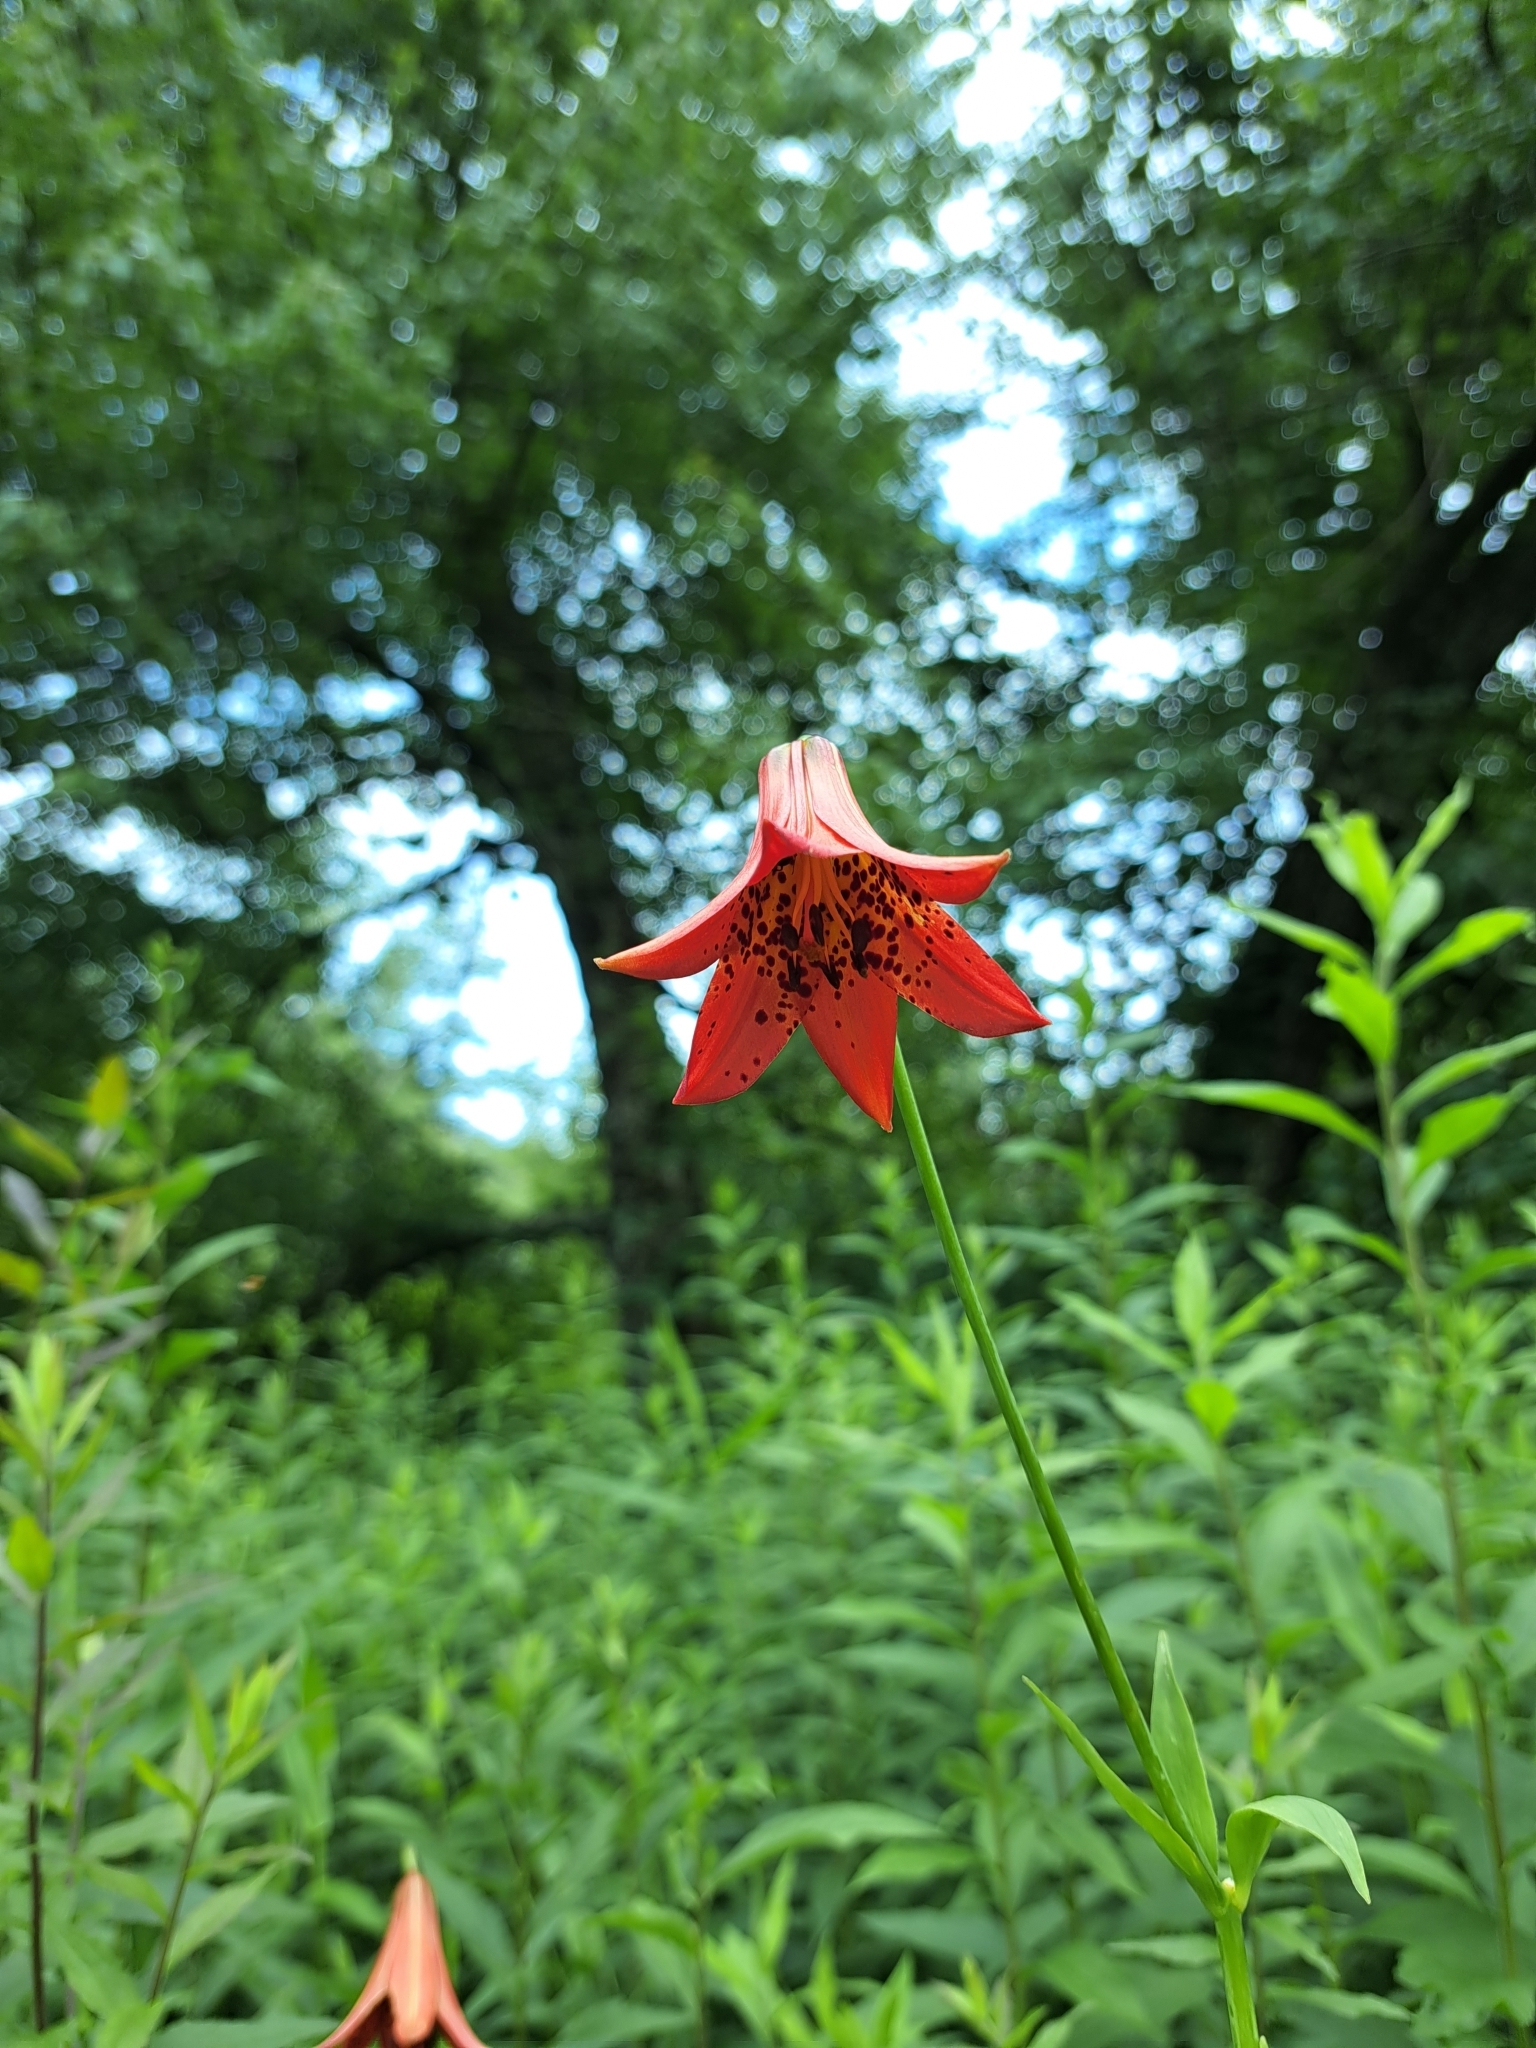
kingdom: Plantae
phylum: Tracheophyta
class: Liliopsida
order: Liliales
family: Liliaceae
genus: Lilium
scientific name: Lilium grayi
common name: Gray's lily
